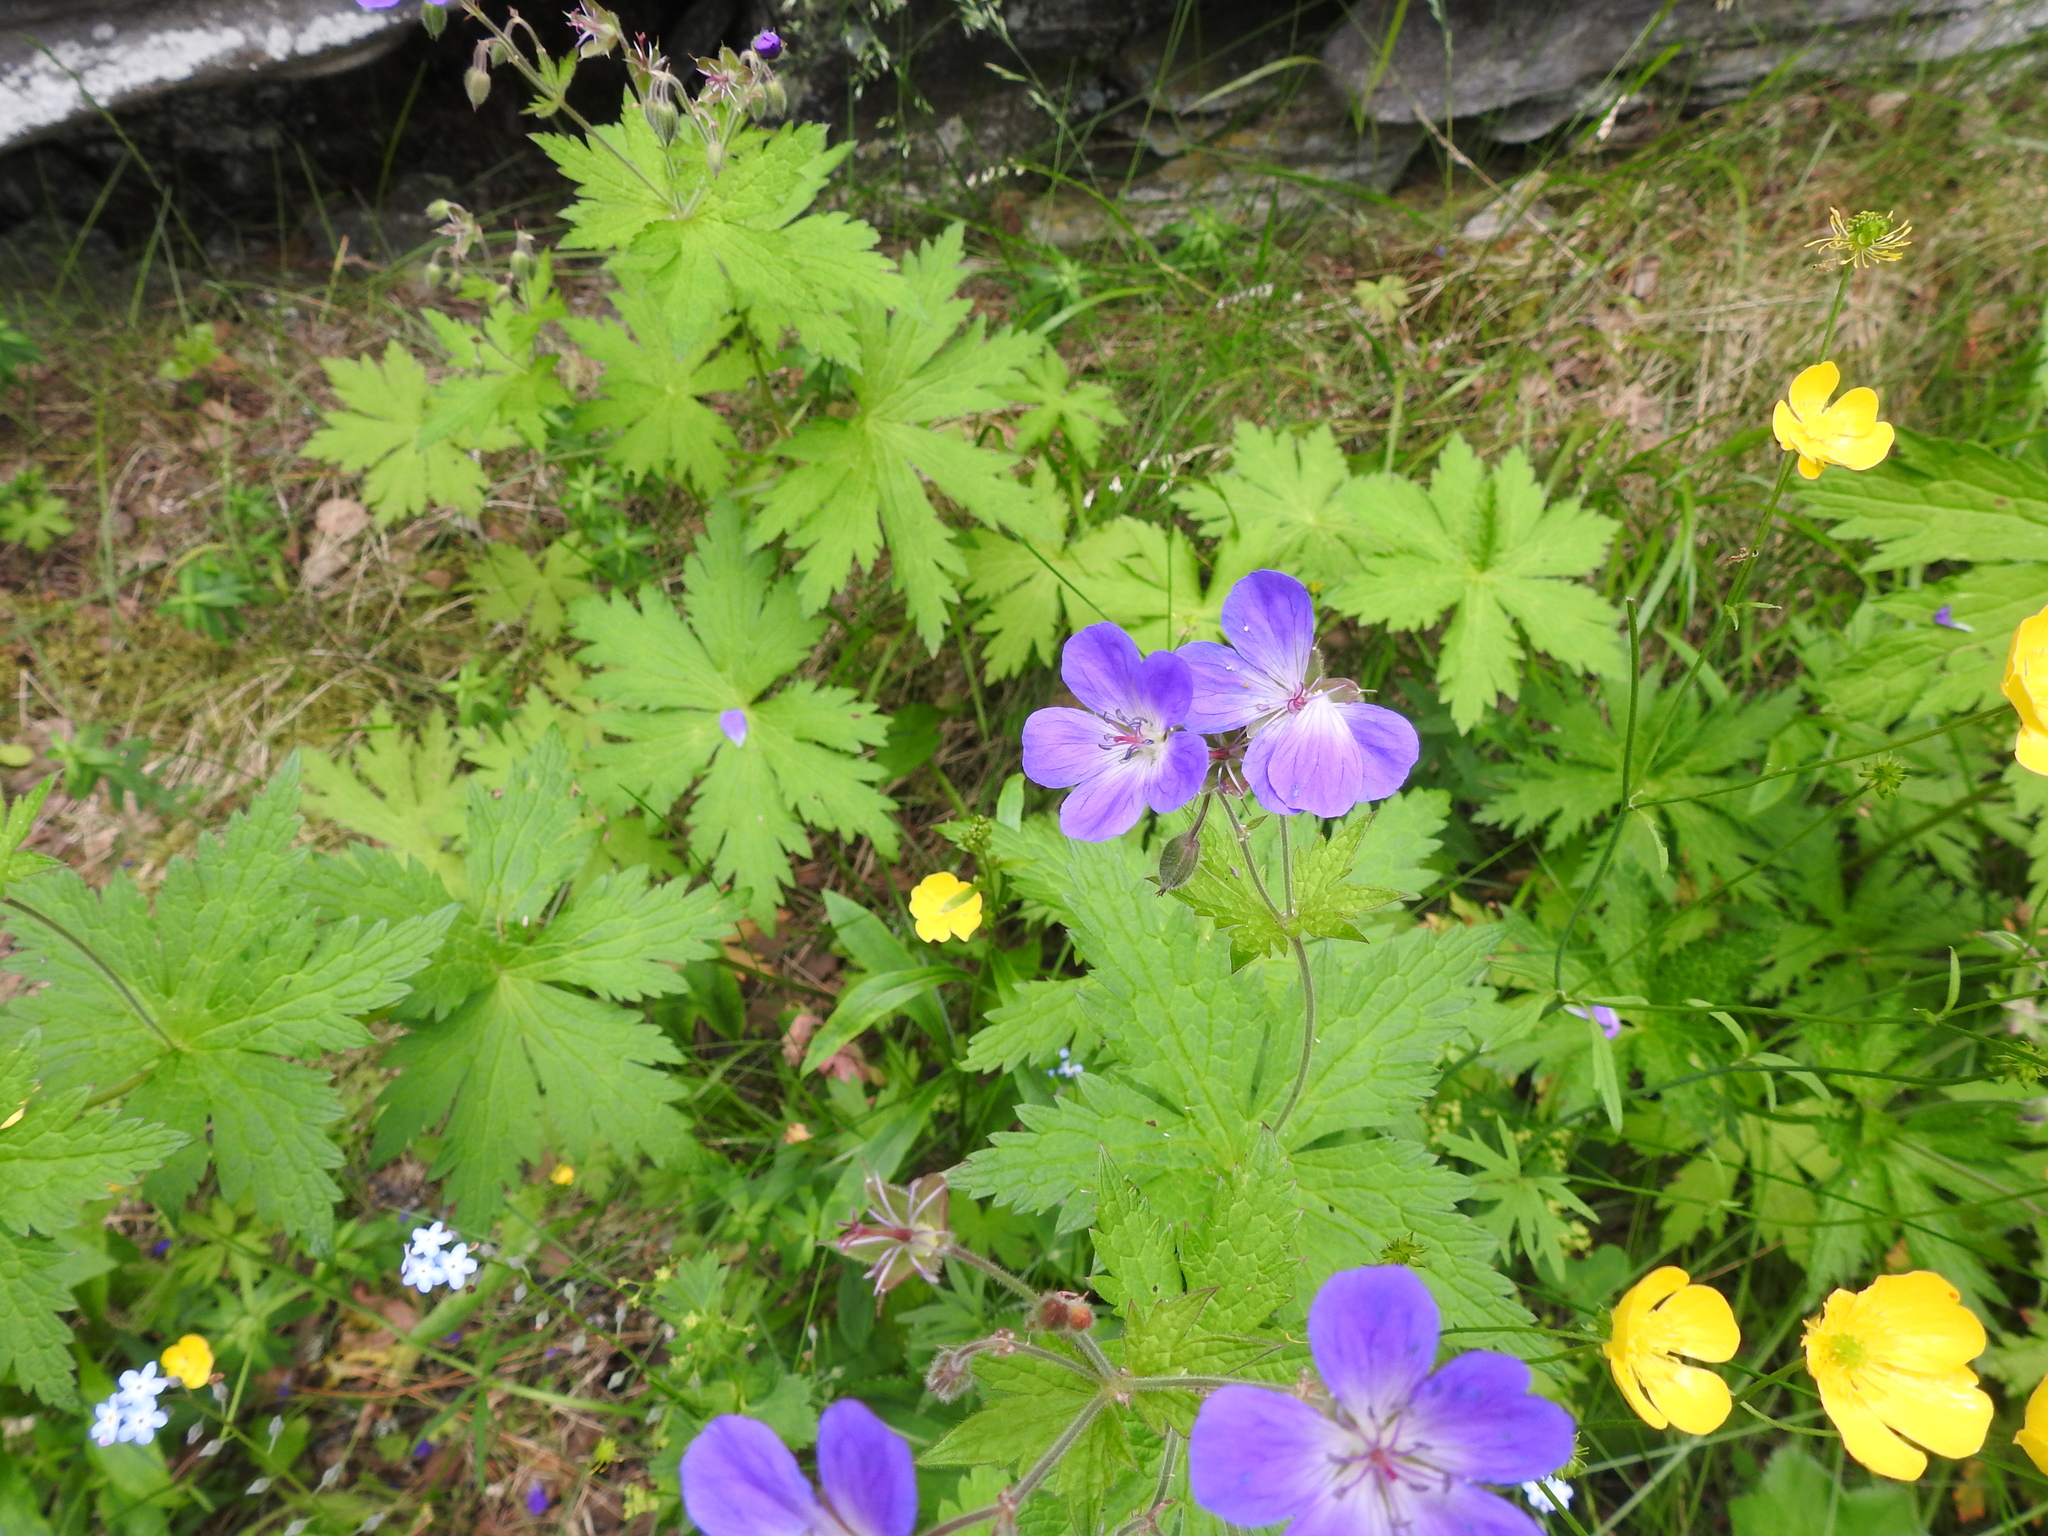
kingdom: Plantae
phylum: Tracheophyta
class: Magnoliopsida
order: Geraniales
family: Geraniaceae
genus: Geranium
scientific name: Geranium sylvaticum
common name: Wood crane's-bill
